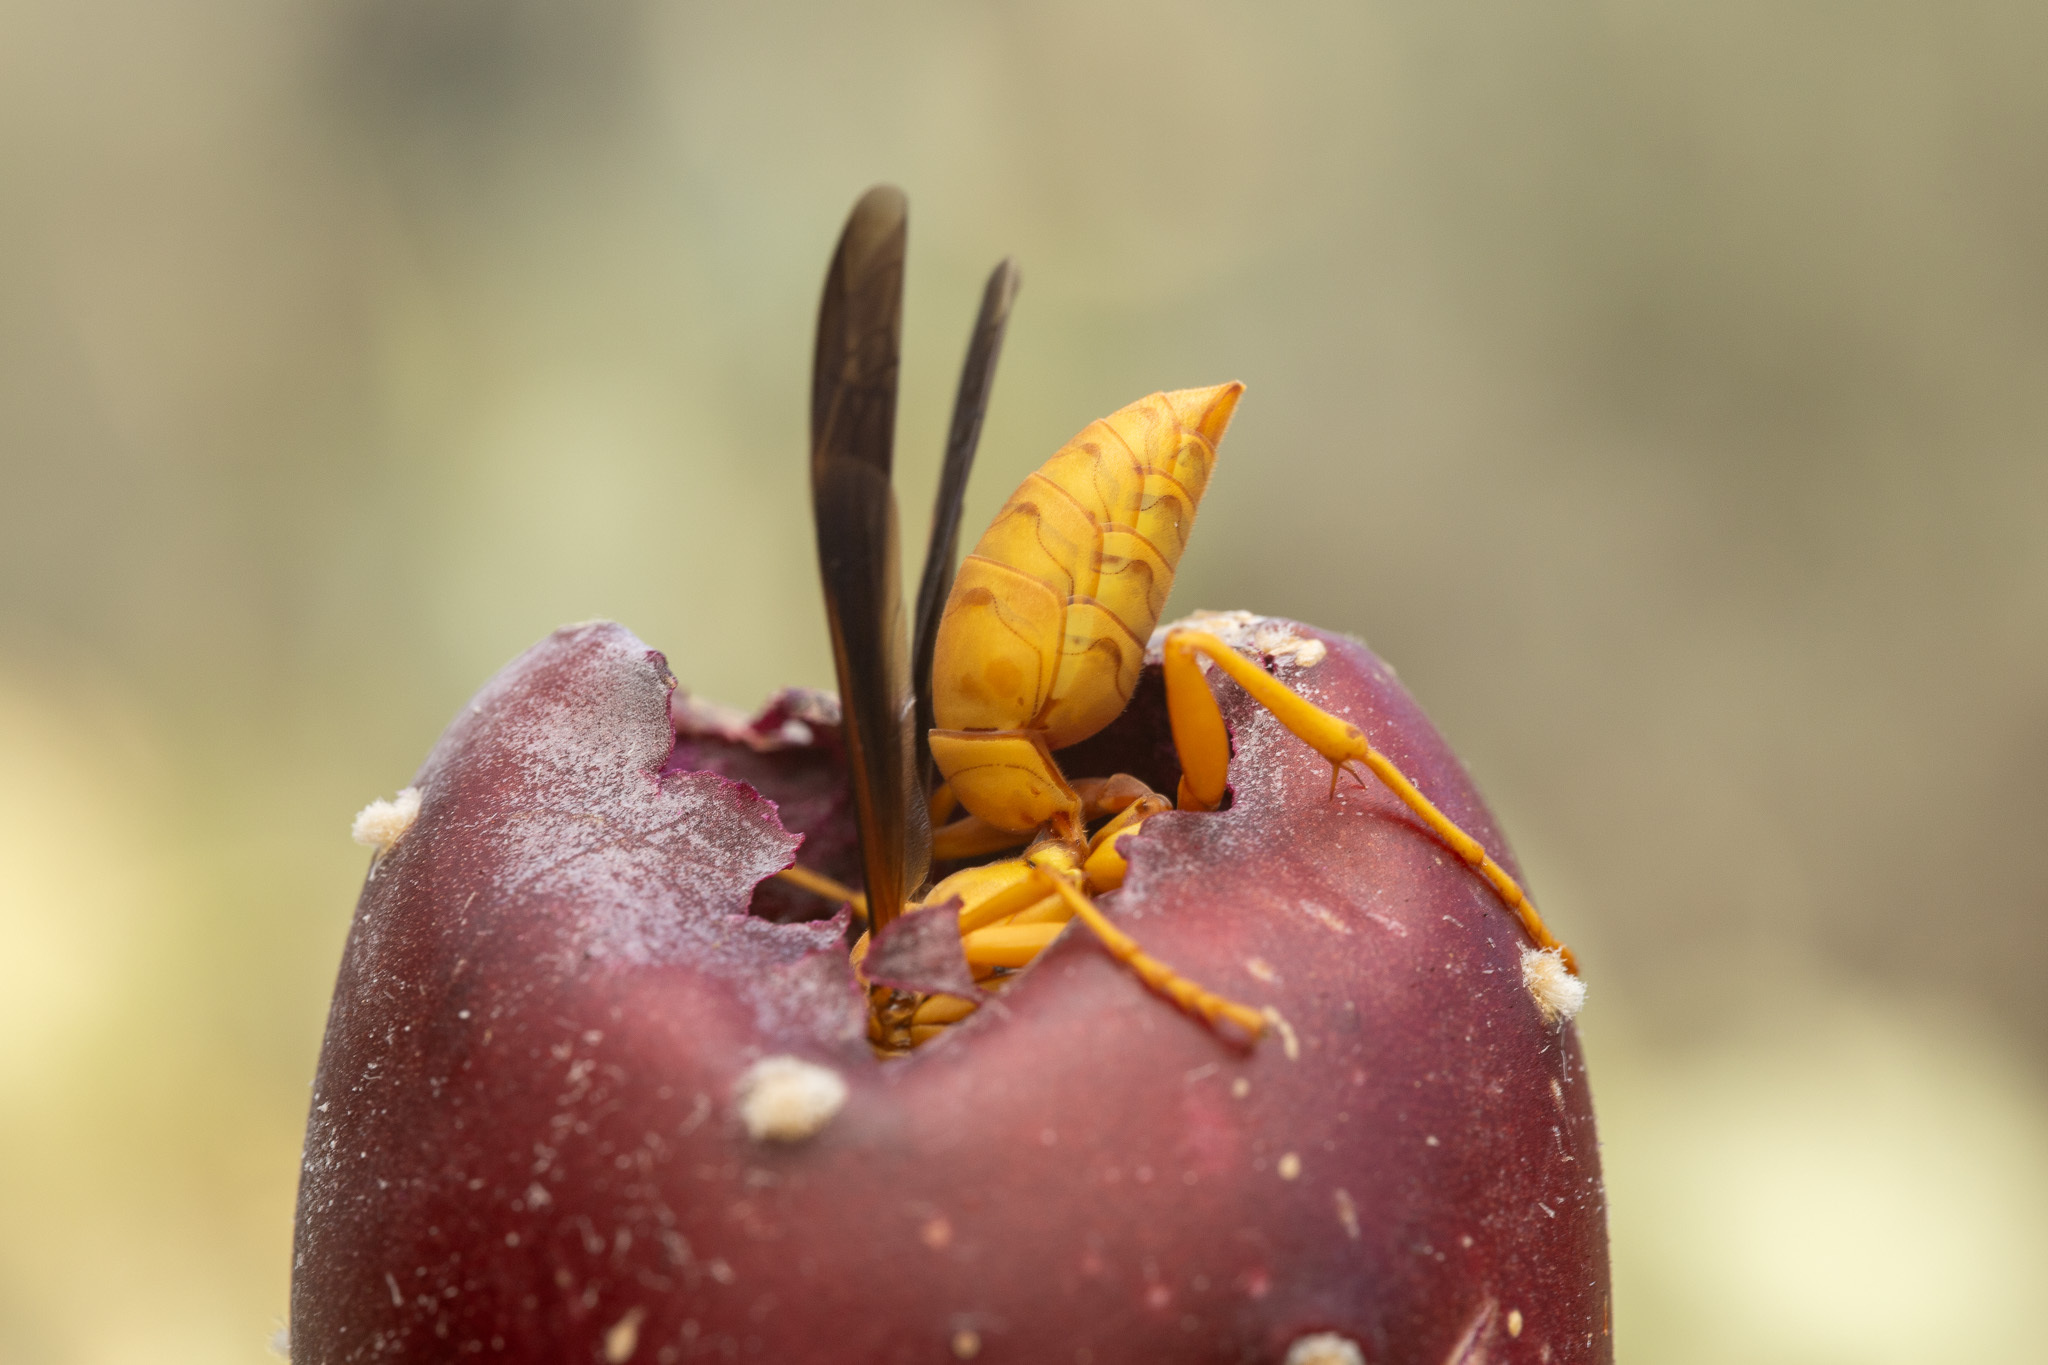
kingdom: Animalia
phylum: Arthropoda
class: Insecta
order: Hymenoptera
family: Eumenidae
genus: Polistes
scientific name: Polistes flavus
